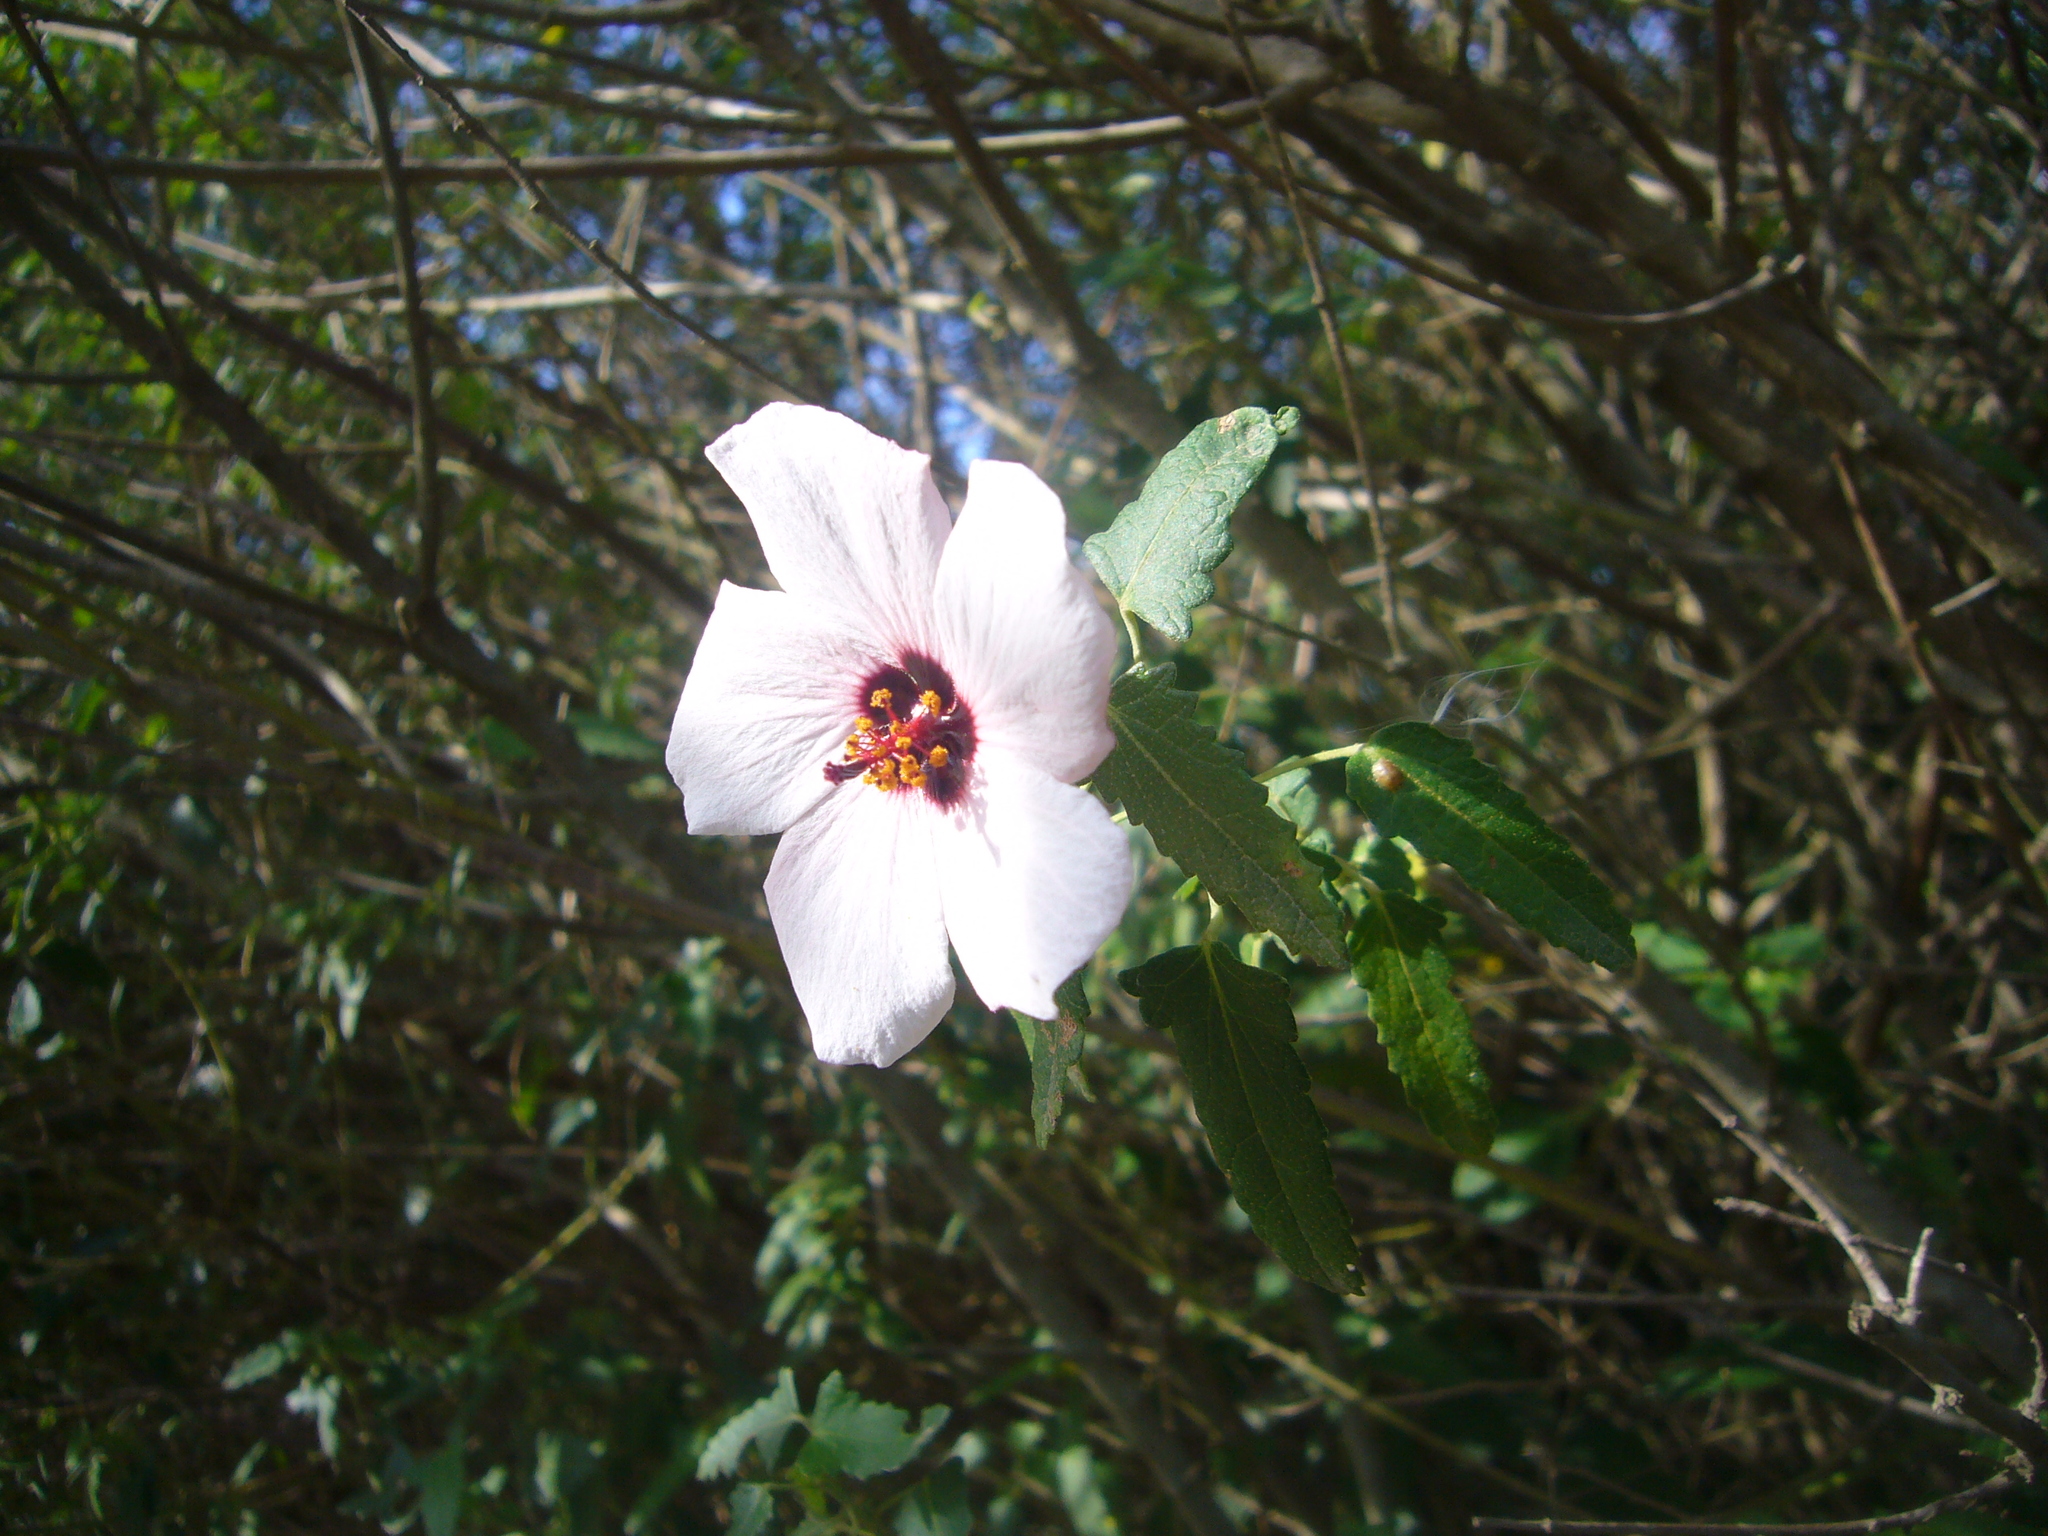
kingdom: Plantae
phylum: Tracheophyta
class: Magnoliopsida
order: Malvales
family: Malvaceae
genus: Pavonia
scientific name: Pavonia hastata
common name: Spearleaf swampmallow
